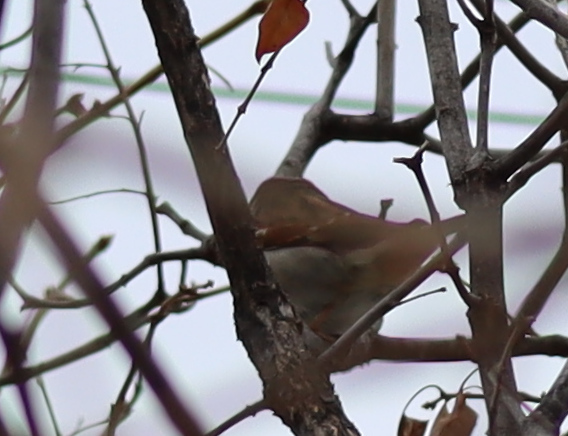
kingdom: Animalia
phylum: Chordata
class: Aves
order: Passeriformes
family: Passeridae
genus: Passer
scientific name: Passer domesticus
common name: House sparrow
